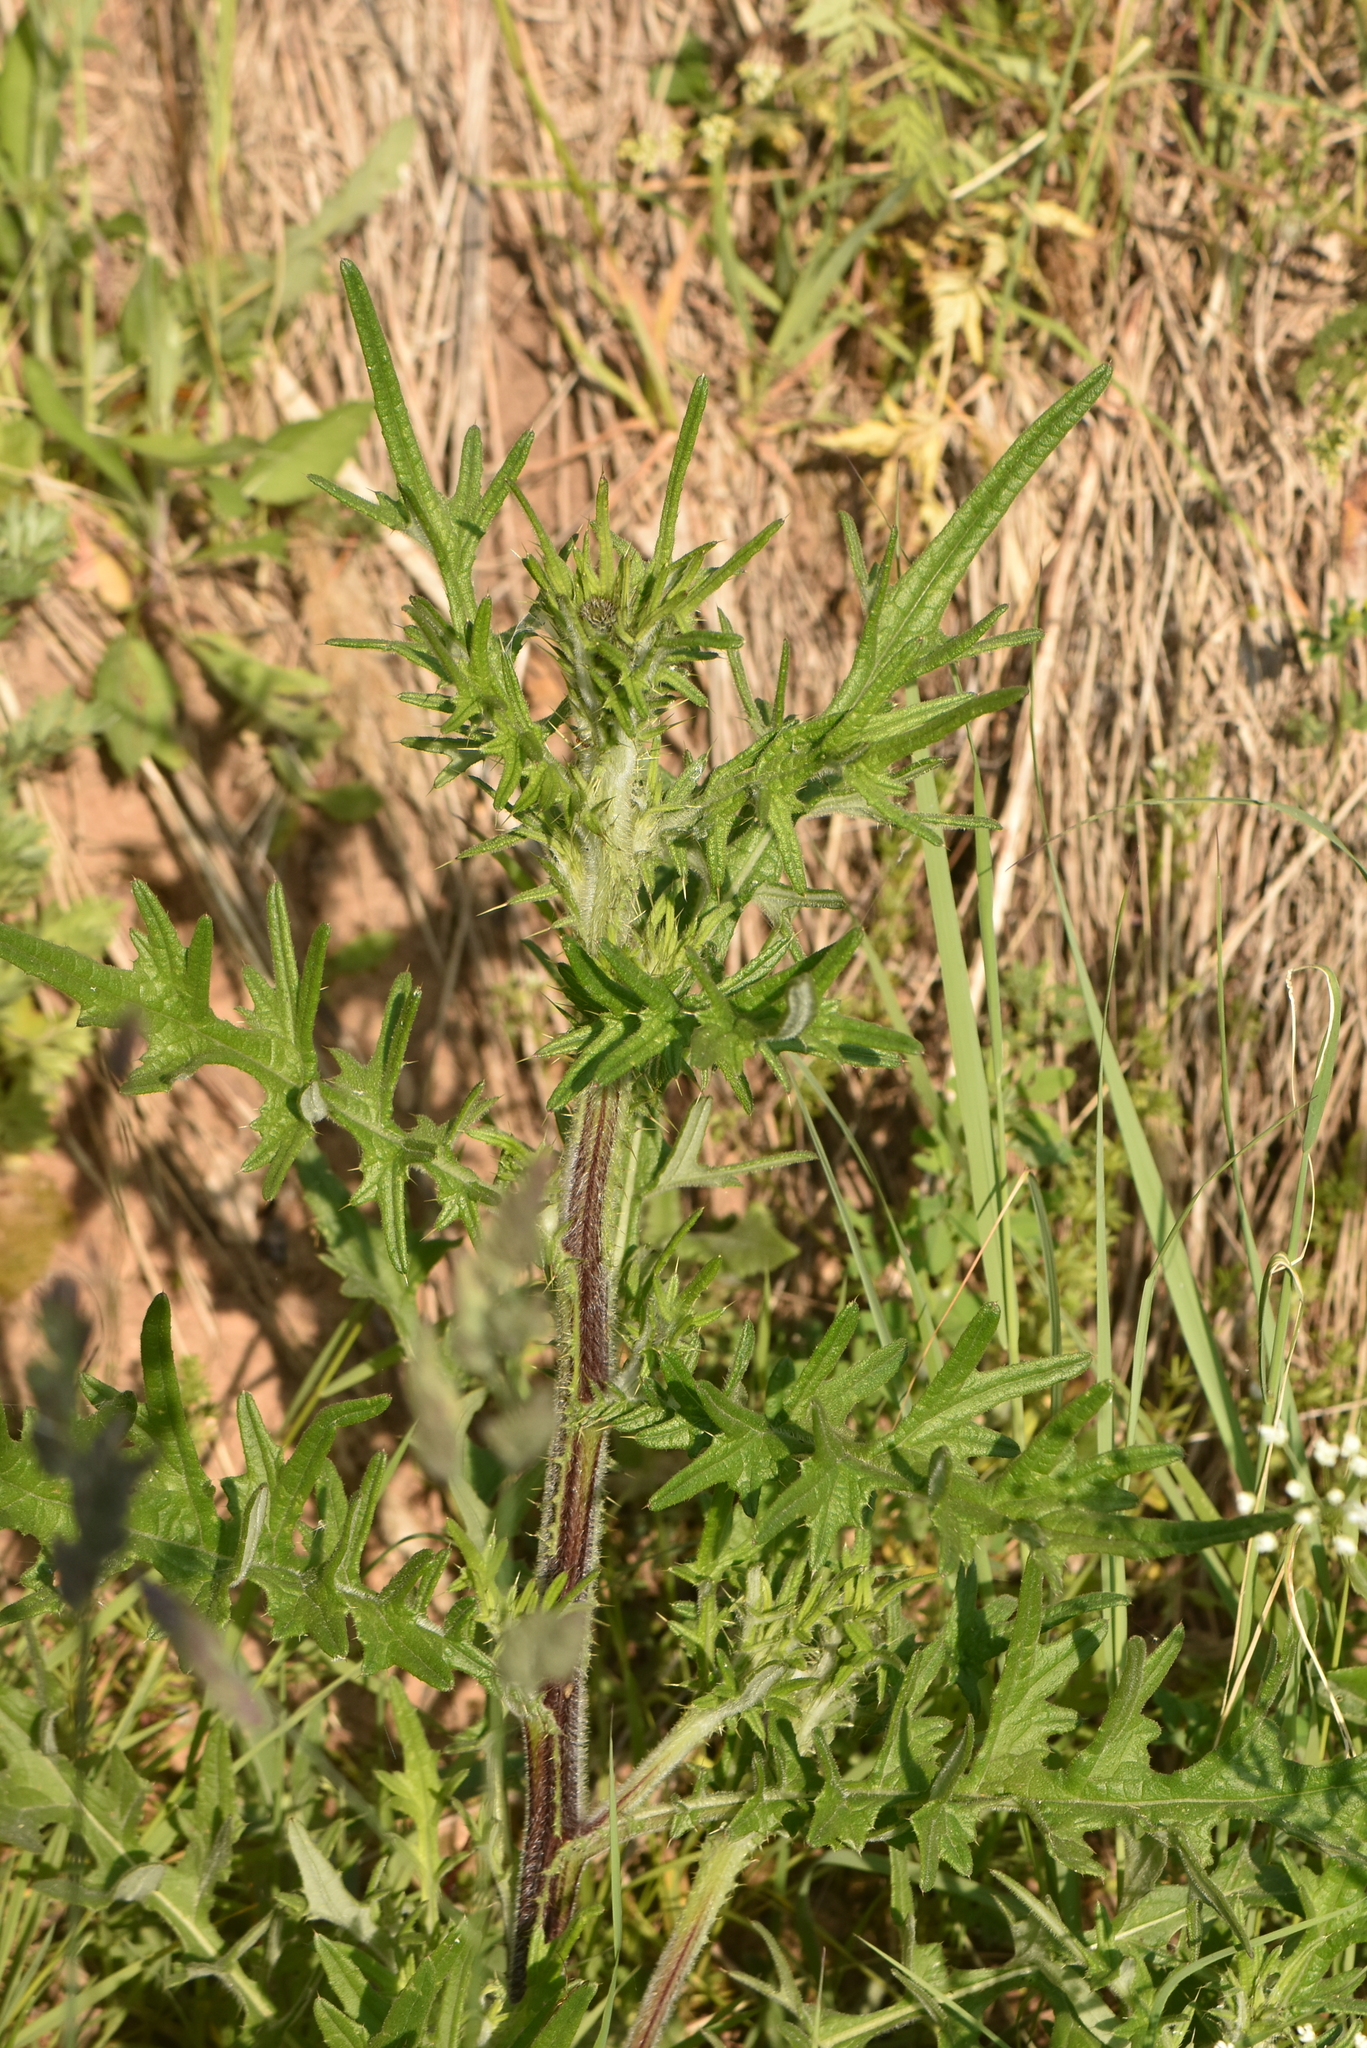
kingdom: Plantae
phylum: Tracheophyta
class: Magnoliopsida
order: Asterales
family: Asteraceae
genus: Cirsium
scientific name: Cirsium vulgare
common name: Bull thistle
